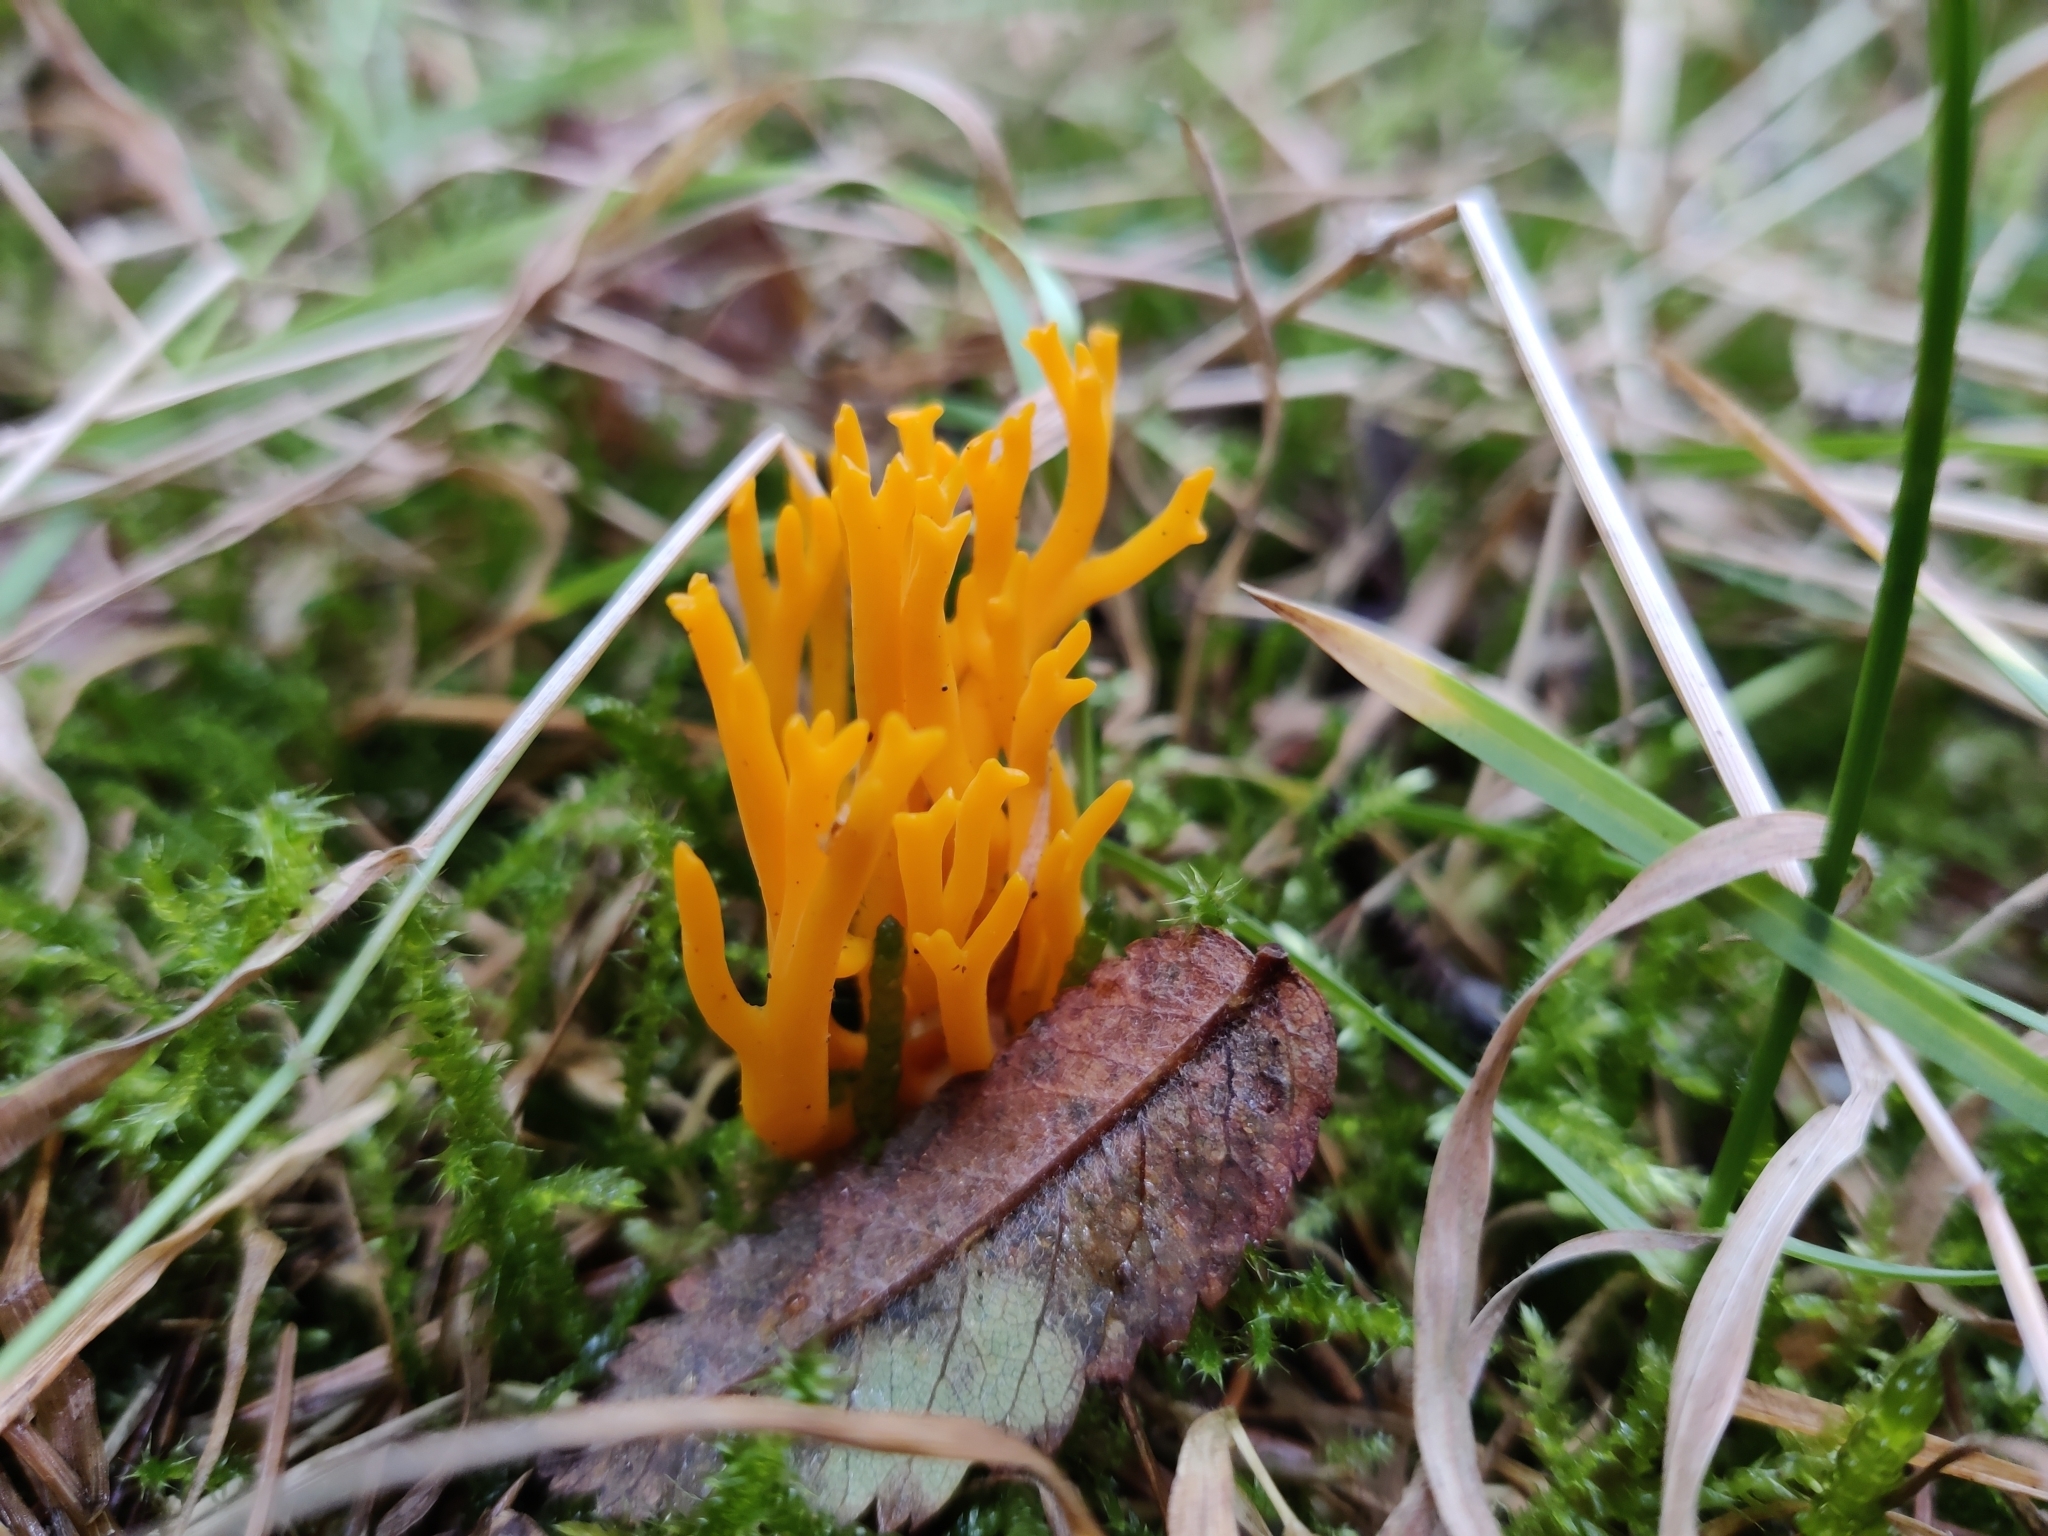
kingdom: Fungi
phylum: Basidiomycota
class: Dacrymycetes
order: Dacrymycetales
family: Dacrymycetaceae
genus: Calocera
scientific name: Calocera viscosa
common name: Yellow stagshorn
